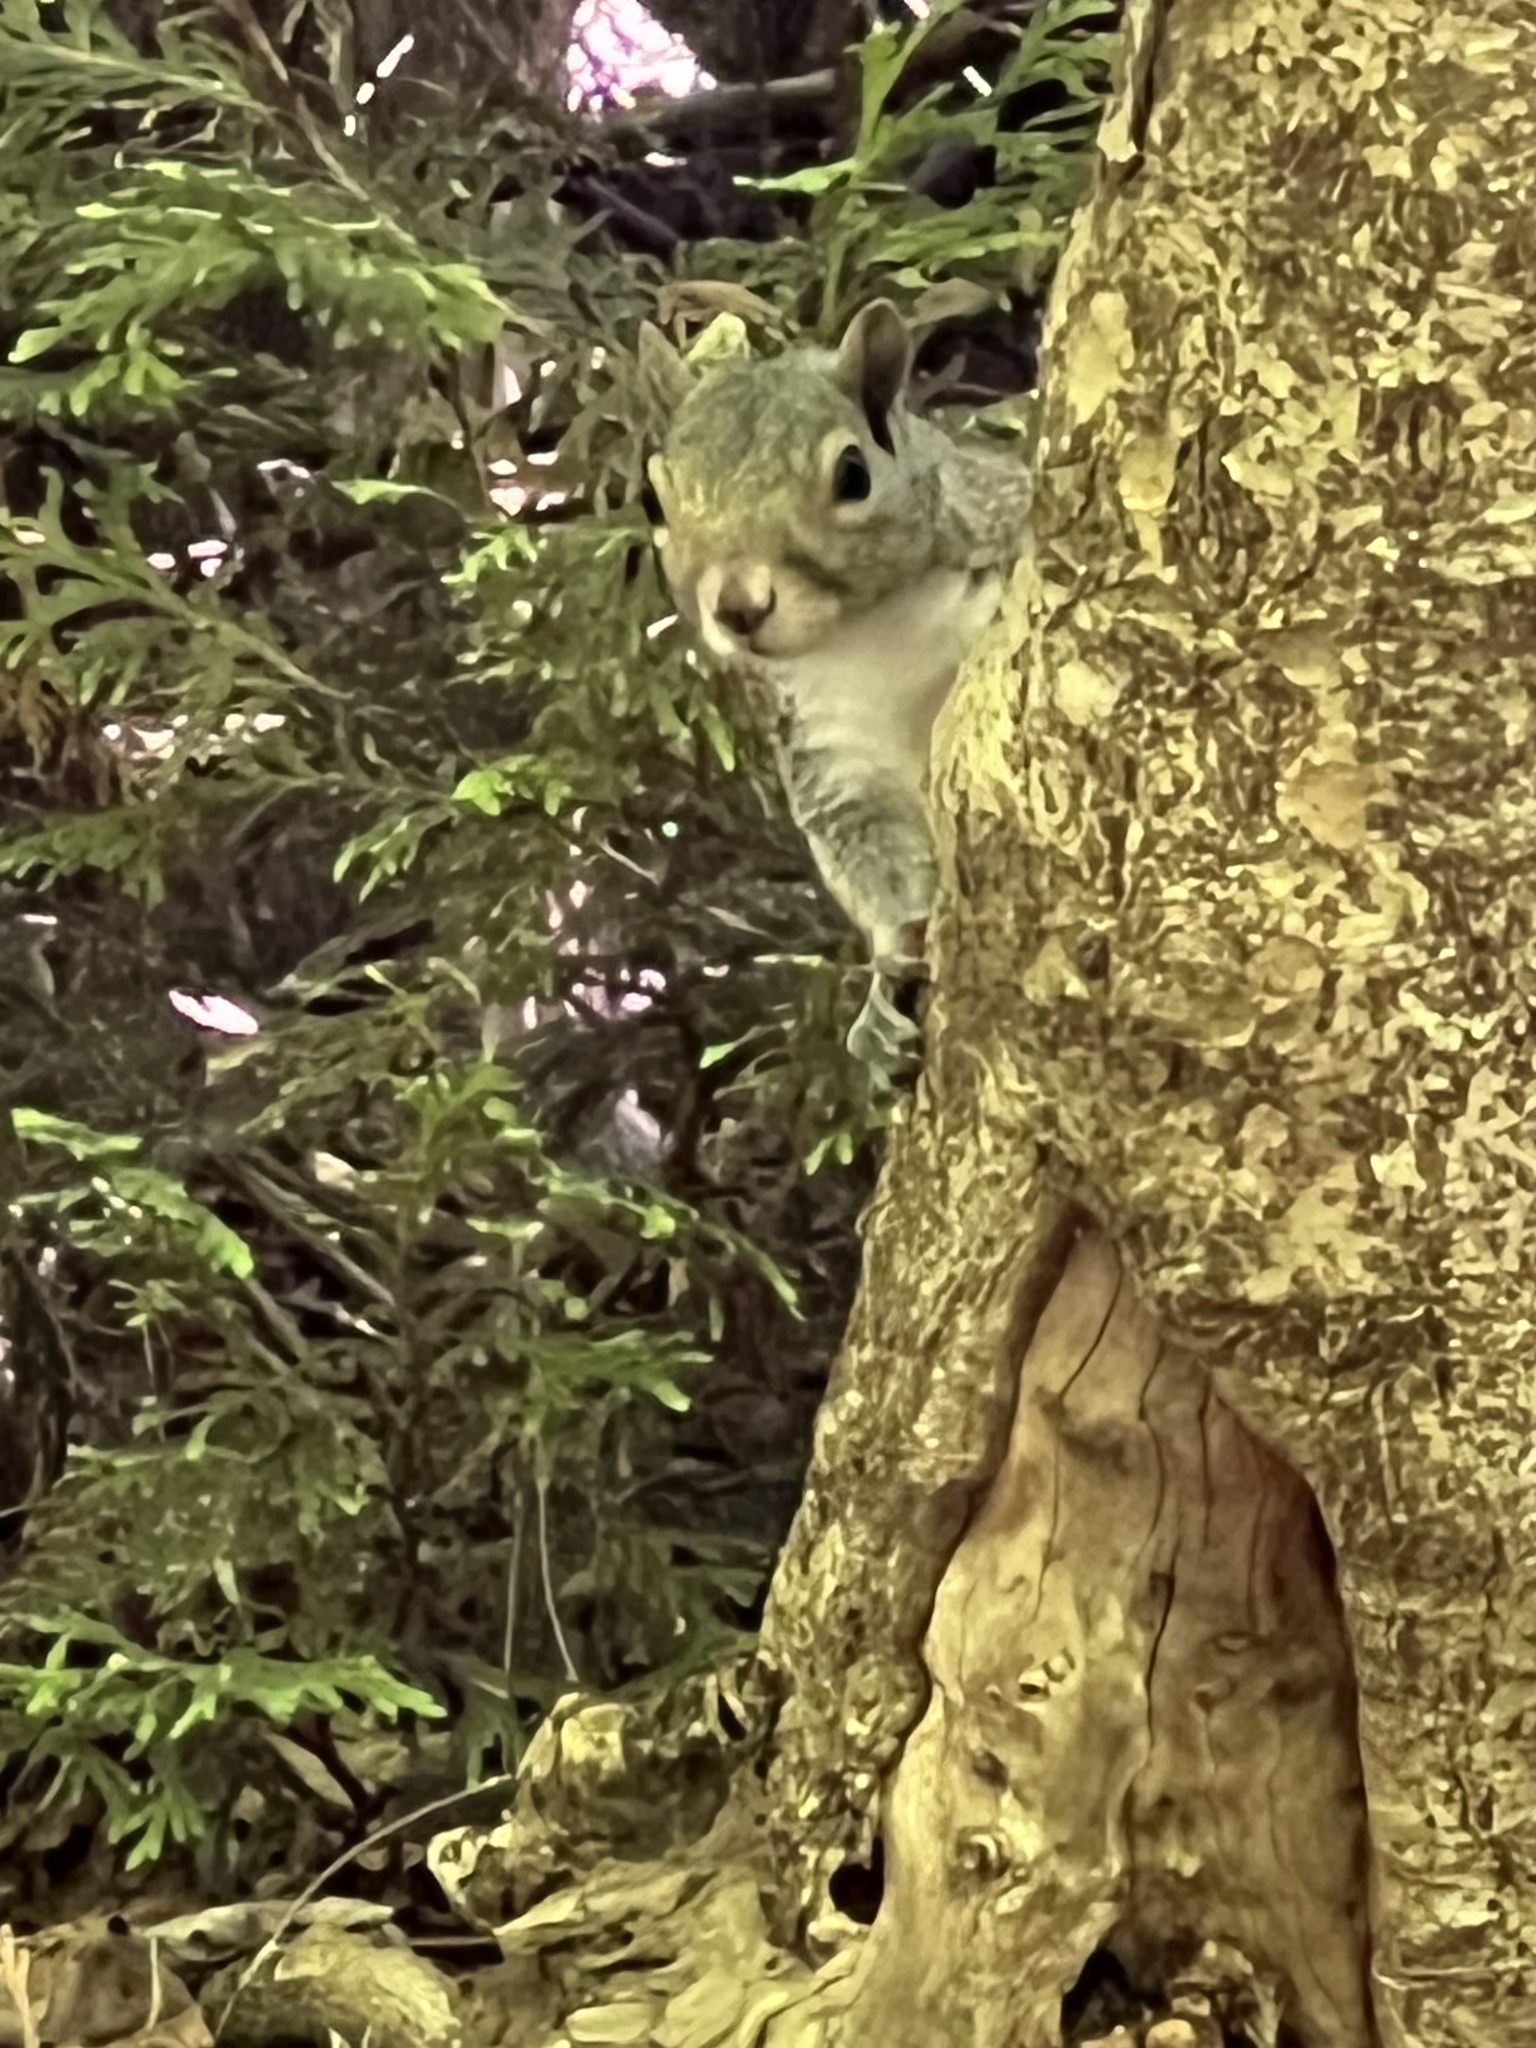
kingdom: Animalia
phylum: Chordata
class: Mammalia
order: Rodentia
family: Sciuridae
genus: Sciurus
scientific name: Sciurus carolinensis
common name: Eastern gray squirrel
